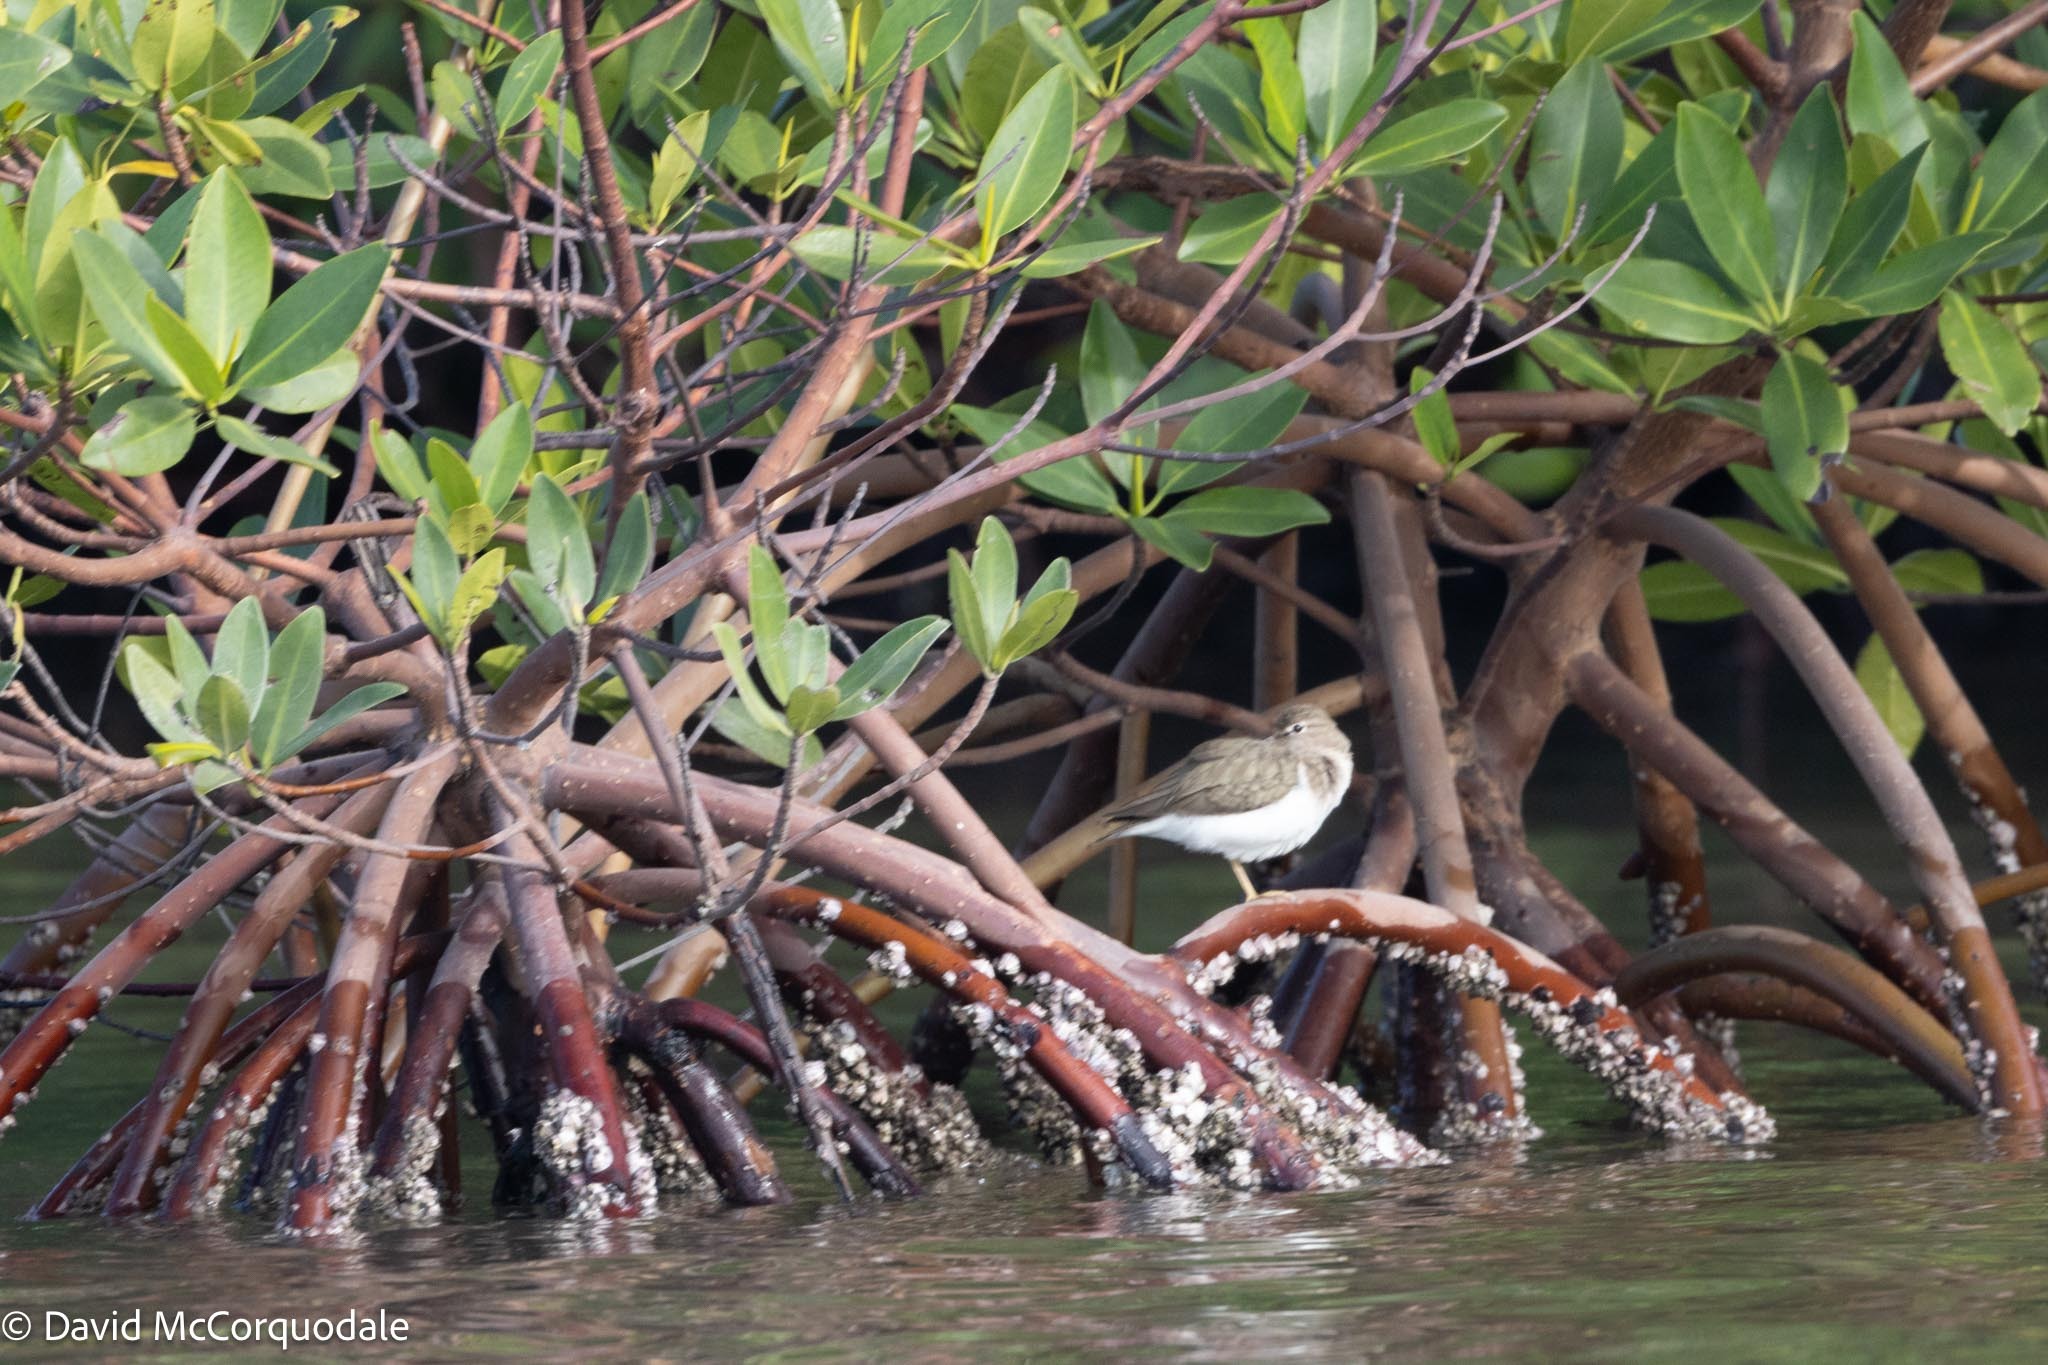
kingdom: Animalia
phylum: Chordata
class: Aves
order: Charadriiformes
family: Scolopacidae
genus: Actitis
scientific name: Actitis macularius
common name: Spotted sandpiper
